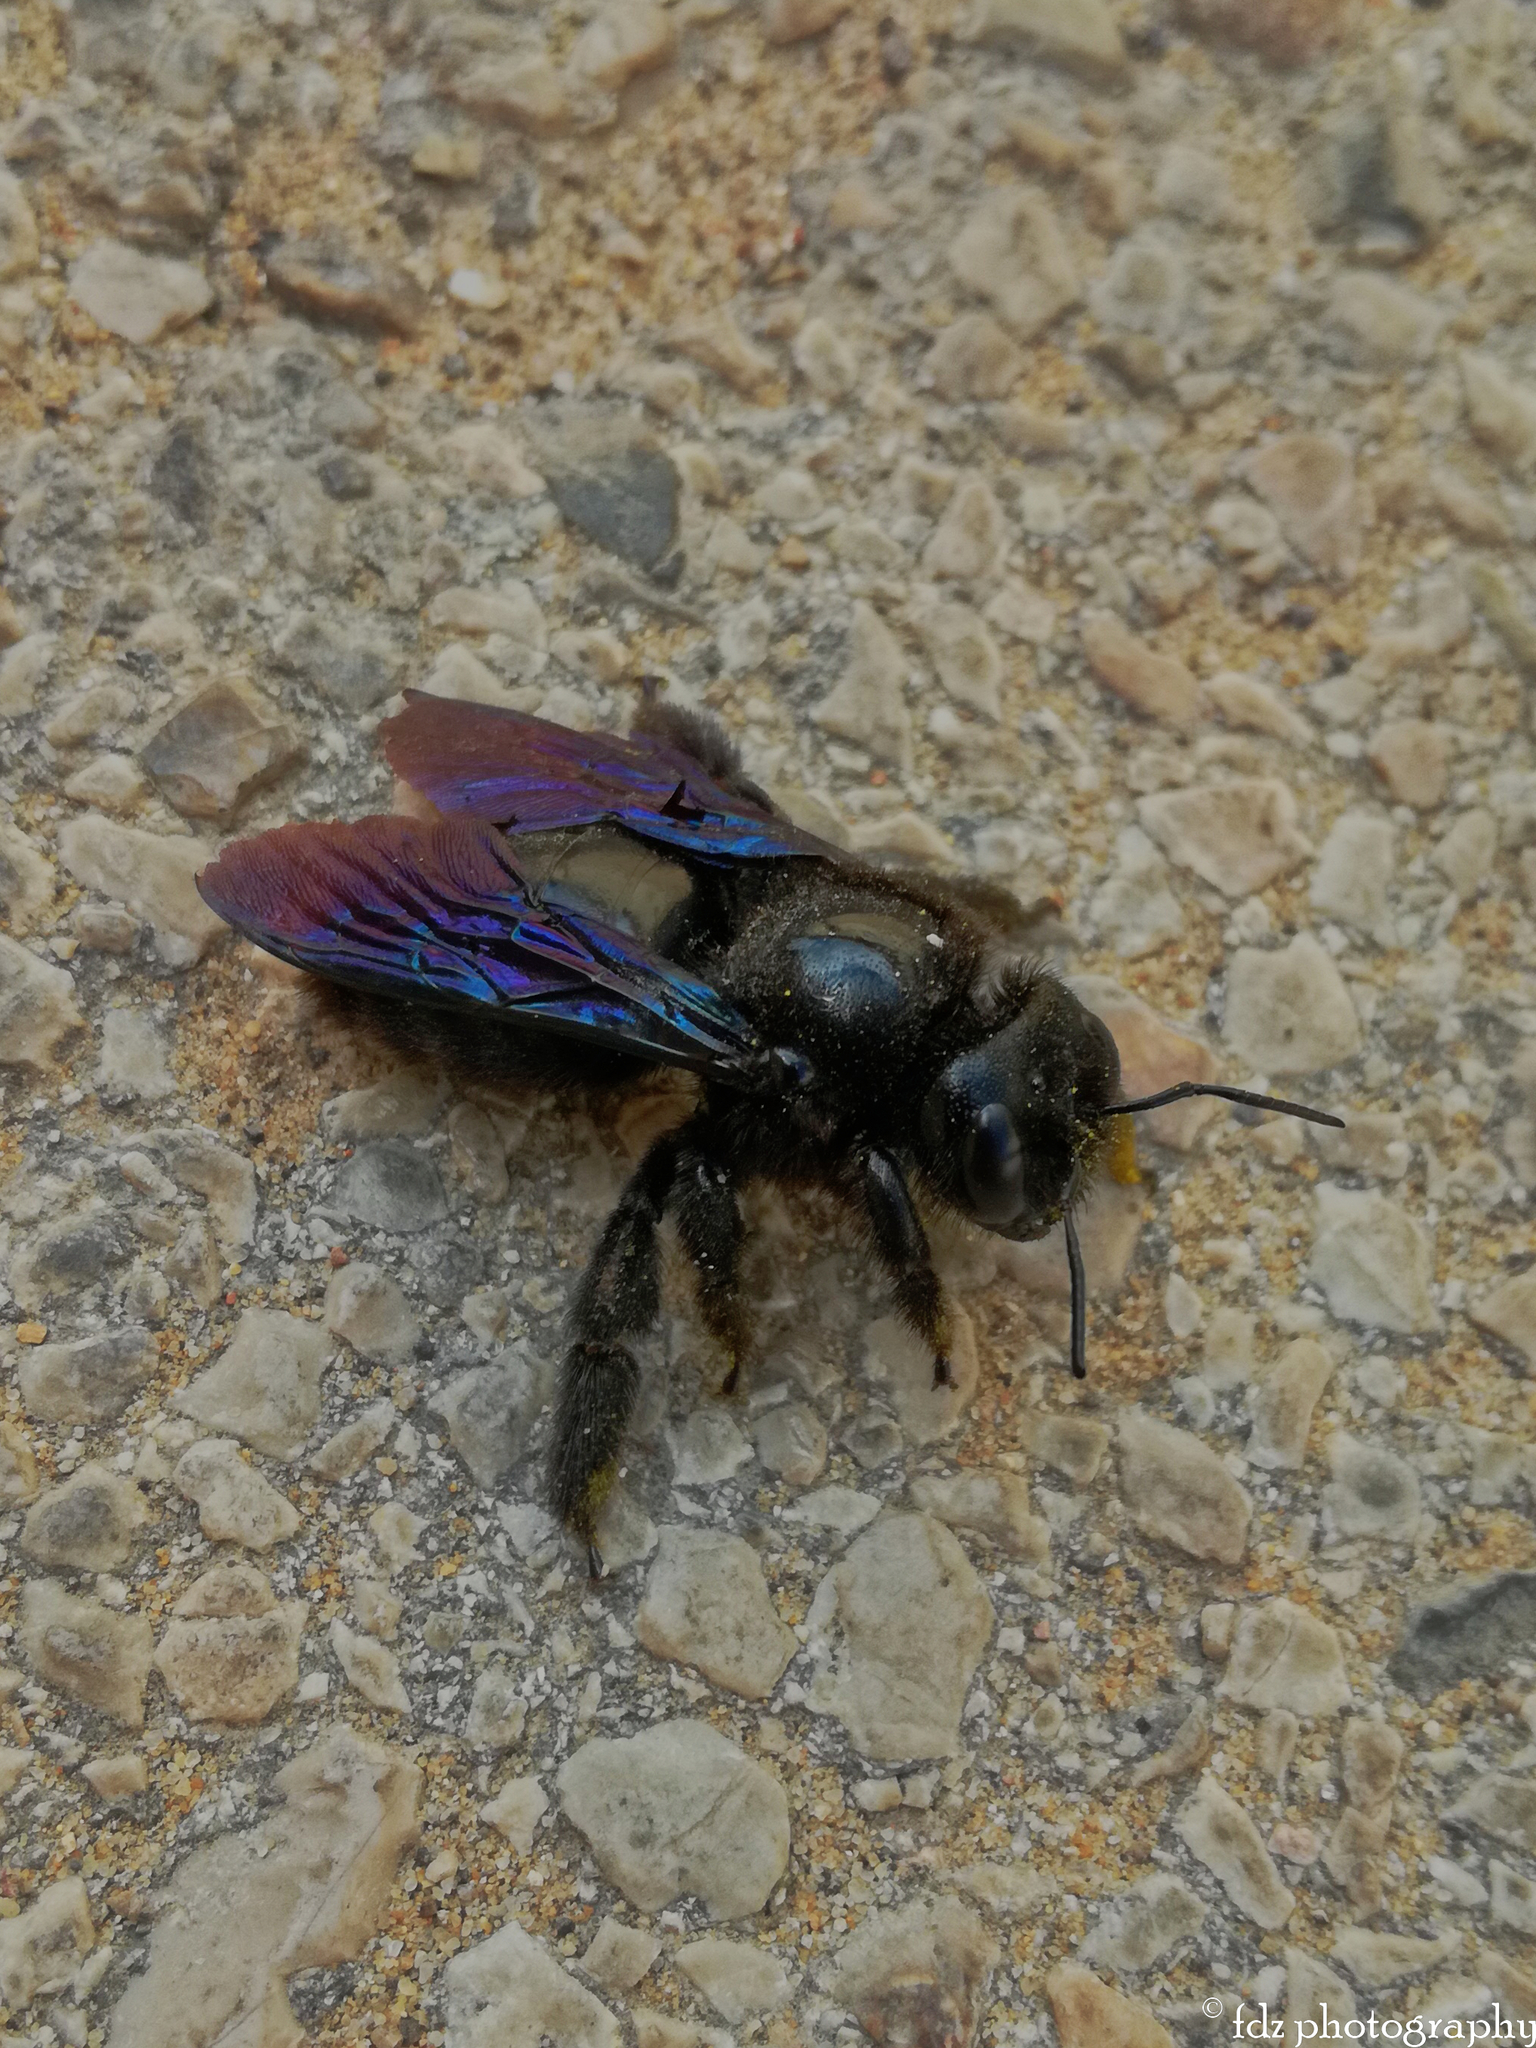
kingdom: Animalia
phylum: Arthropoda
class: Insecta
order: Hymenoptera
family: Apidae
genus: Xylocopa
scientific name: Xylocopa violacea
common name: Violet carpenter bee
